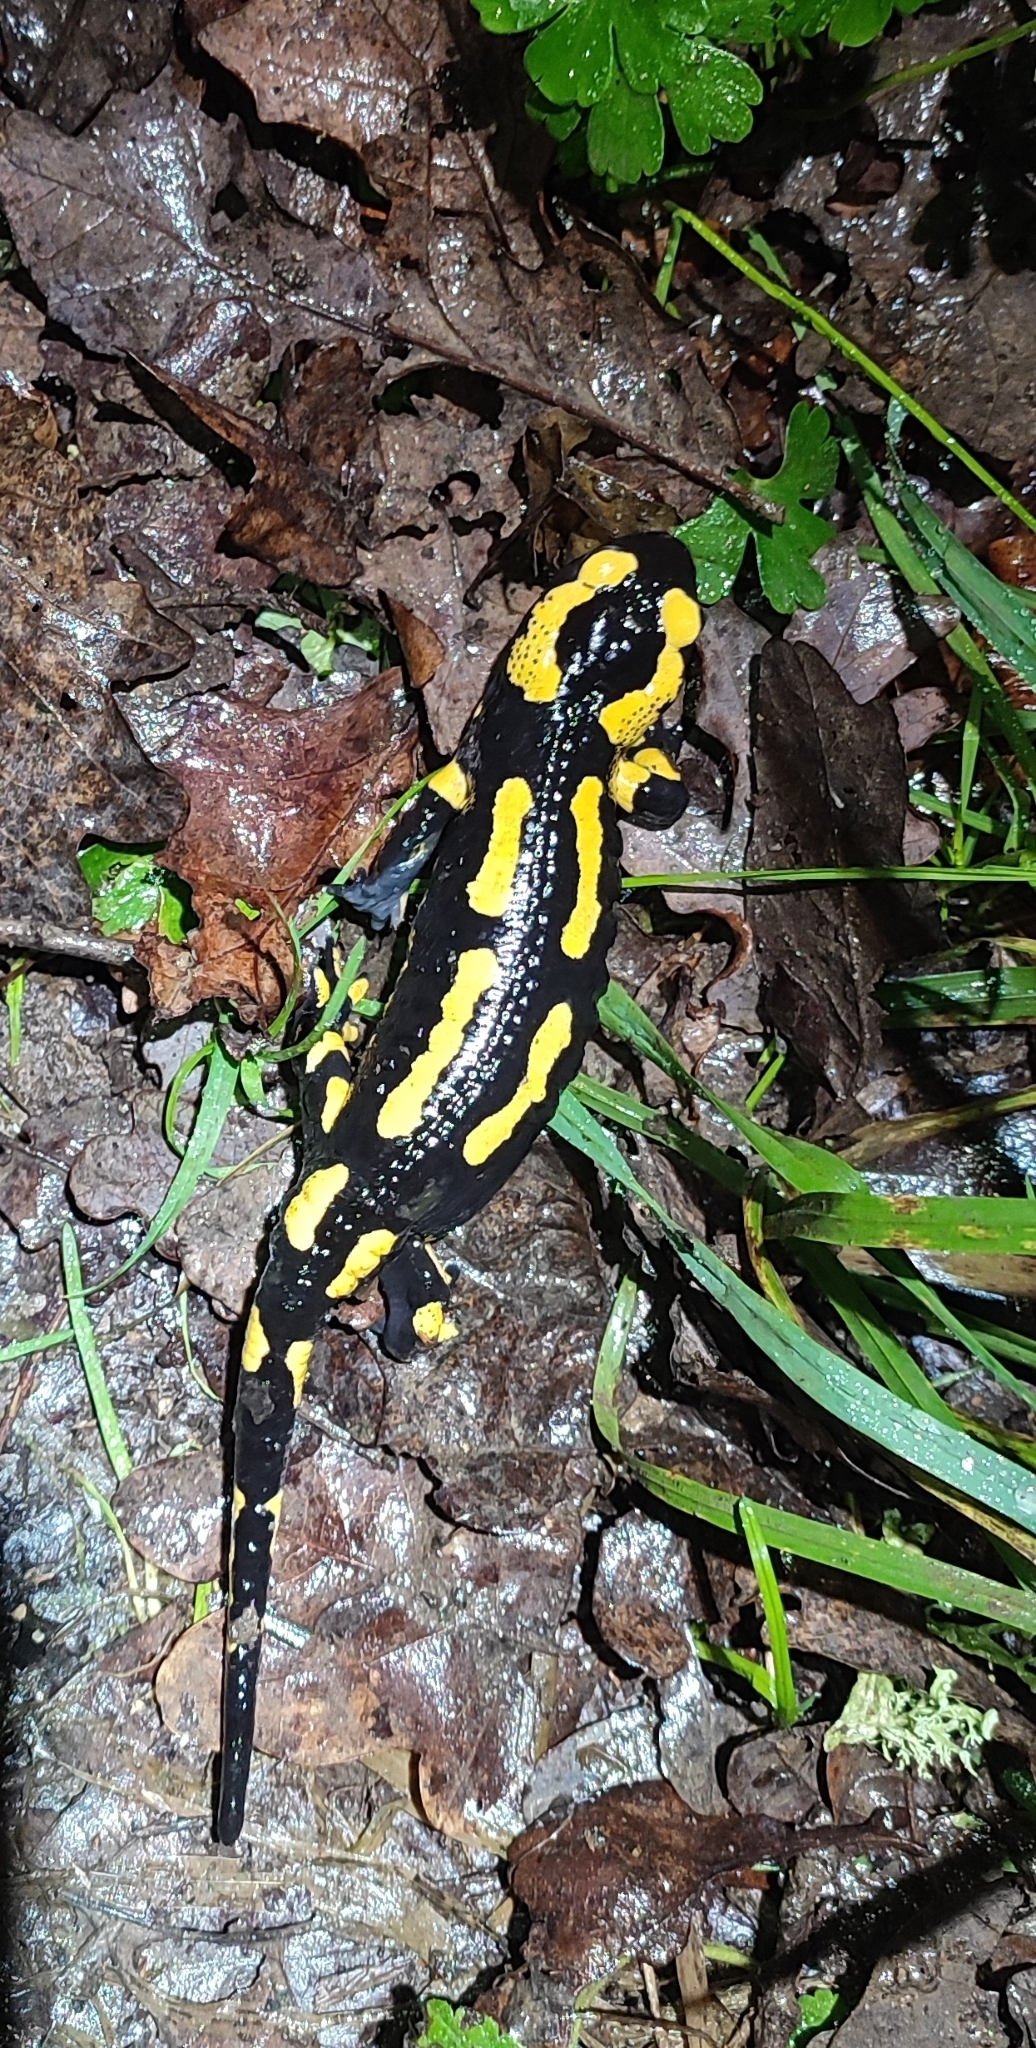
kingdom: Animalia
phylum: Chordata
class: Amphibia
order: Caudata
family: Salamandridae
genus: Salamandra
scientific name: Salamandra salamandra
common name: Fire salamander
